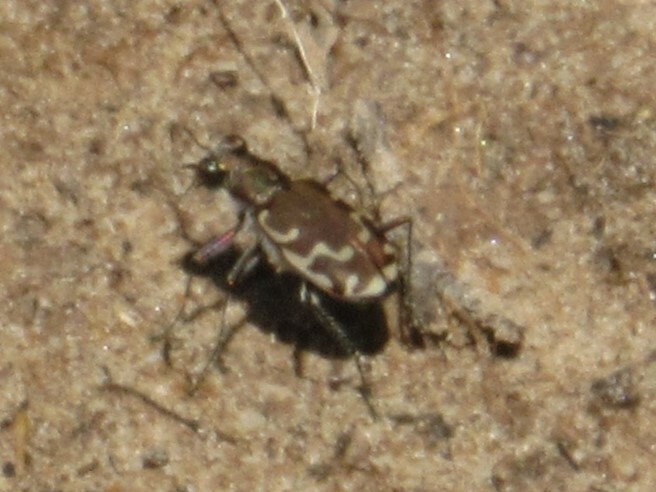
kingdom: Animalia
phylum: Arthropoda
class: Insecta
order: Coleoptera
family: Carabidae
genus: Cicindela
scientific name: Cicindela repanda
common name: Bronzed tiger beetle
